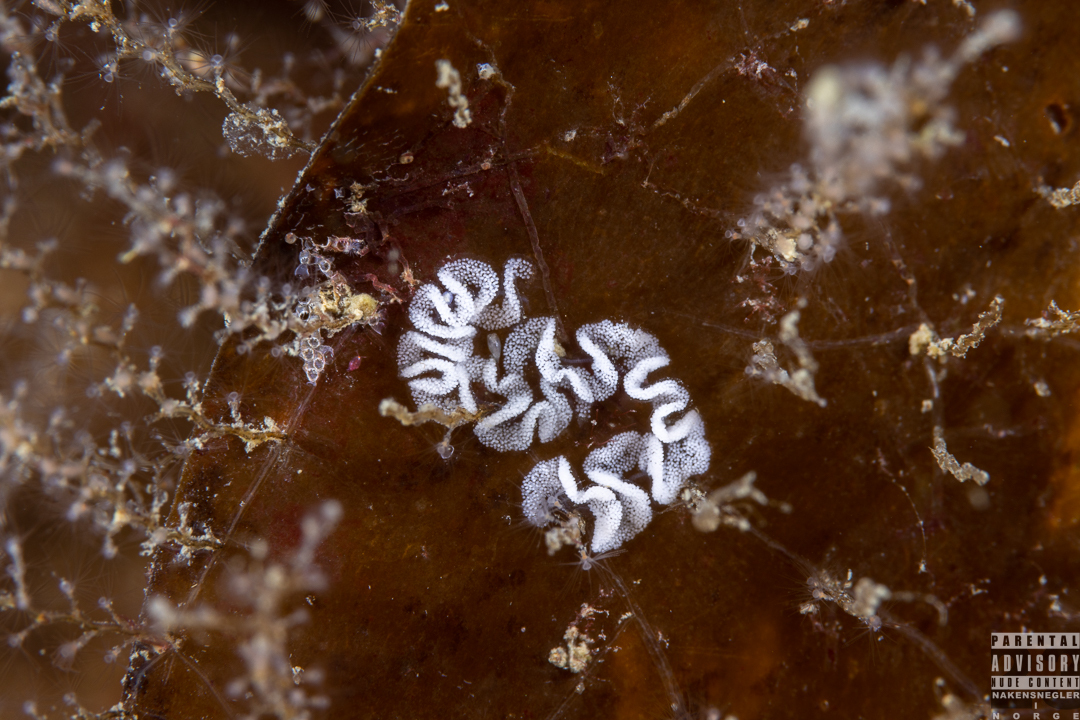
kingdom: Animalia
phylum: Mollusca
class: Gastropoda
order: Nudibranchia
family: Dotidae
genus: Doto
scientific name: Doto coronata
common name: Coronate doto
